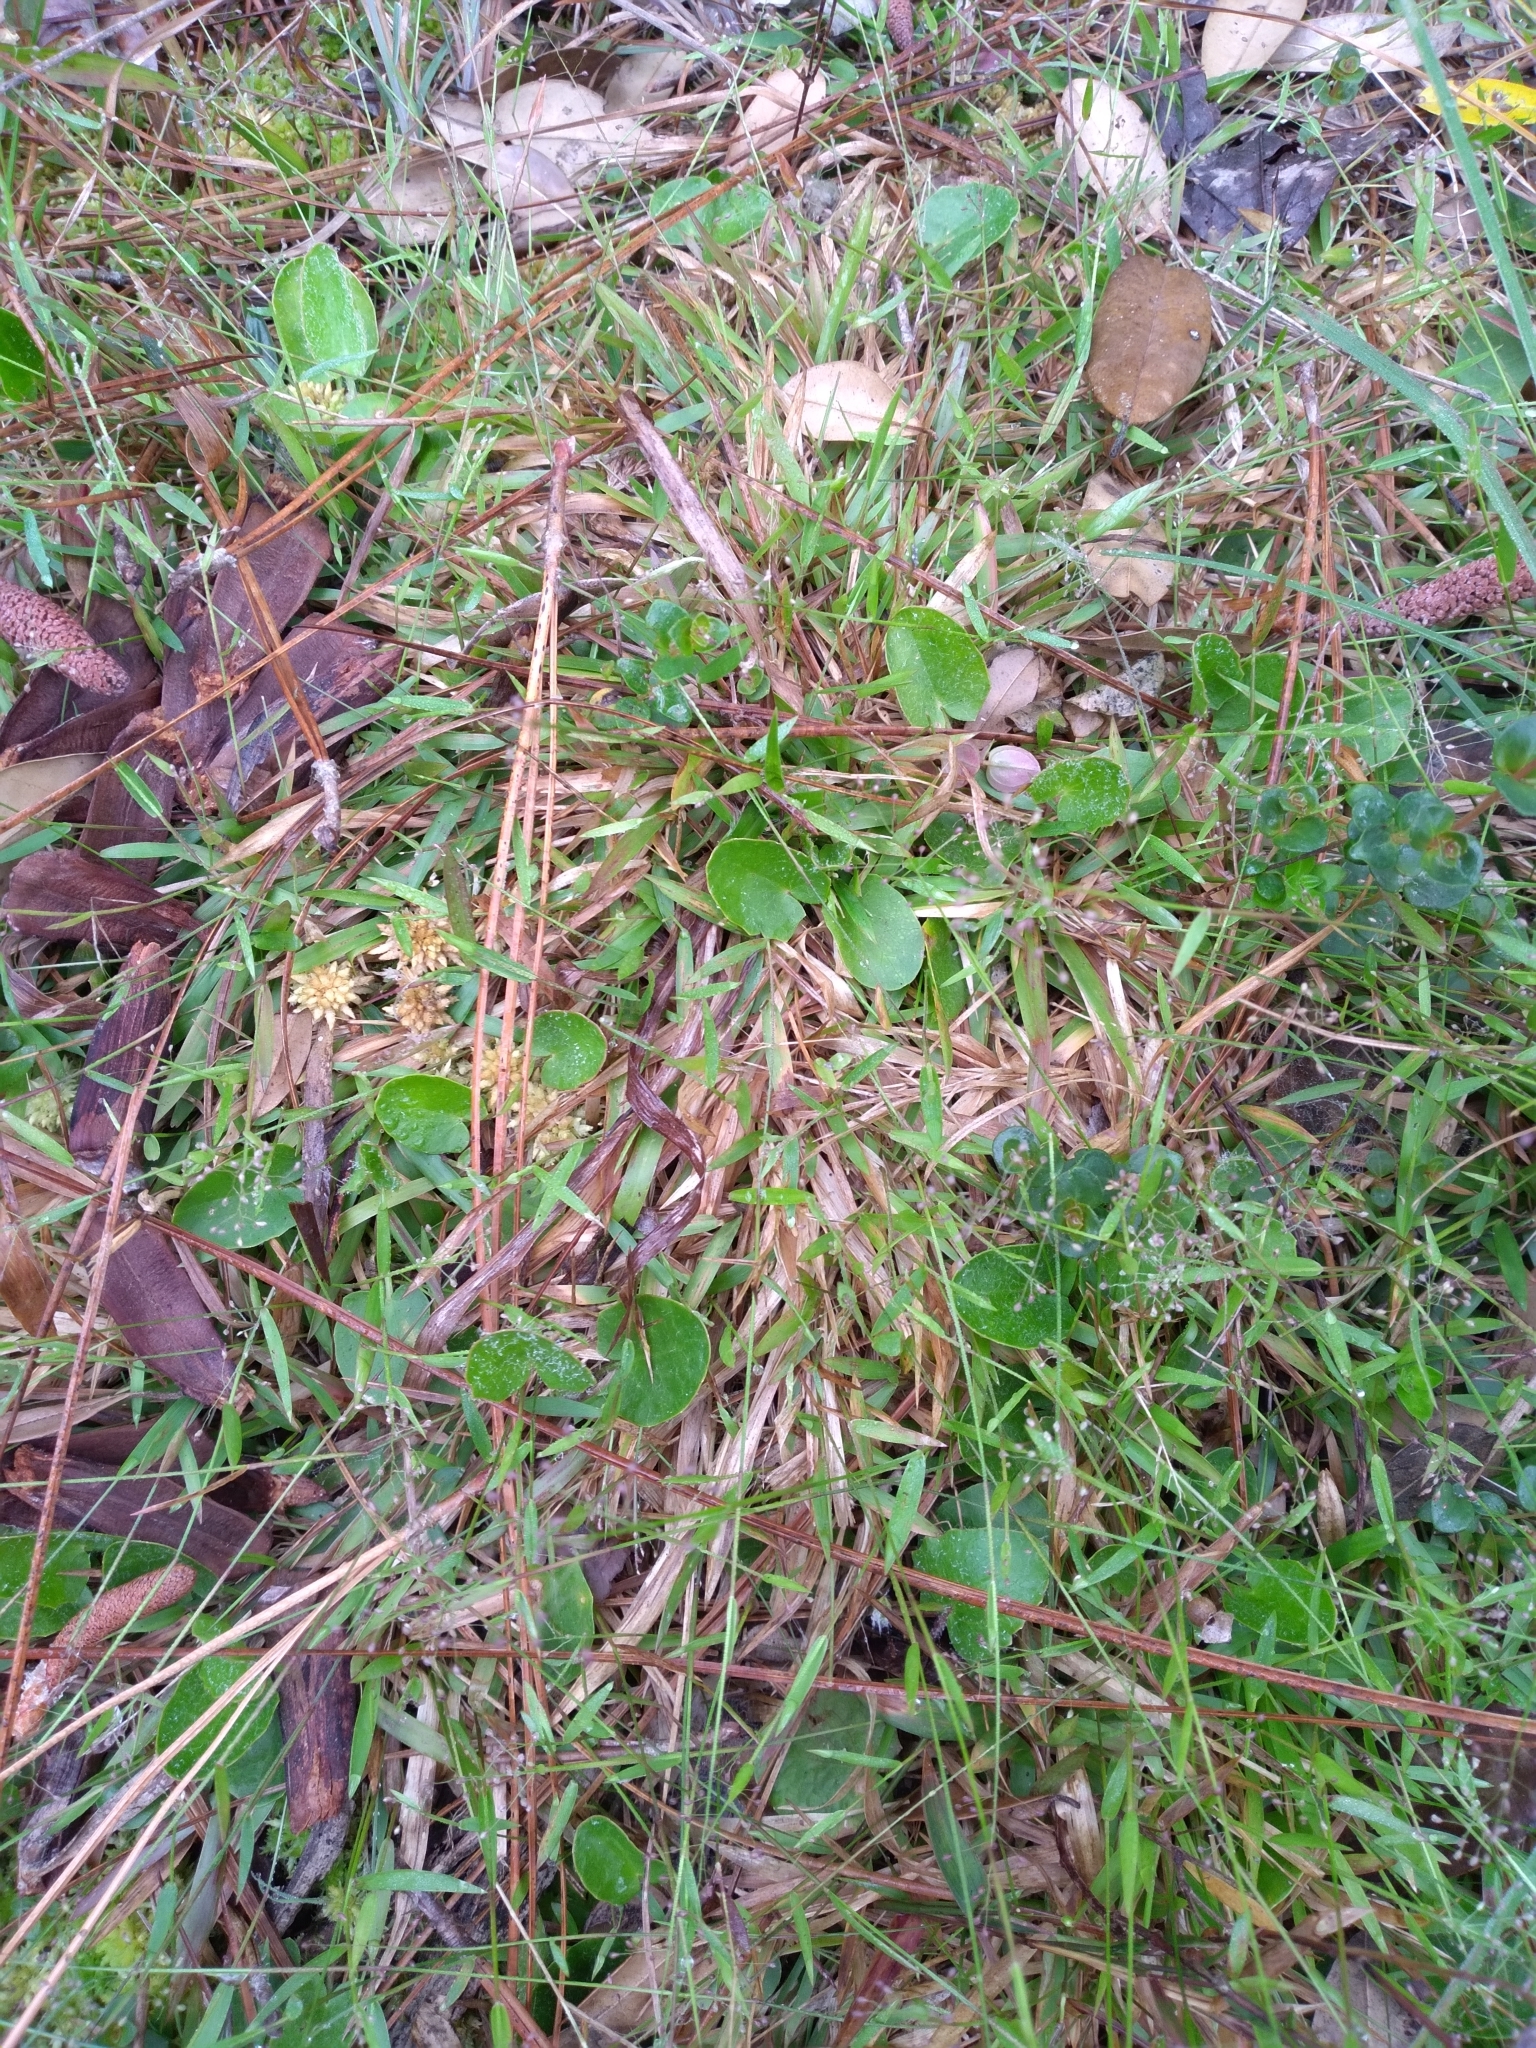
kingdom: Plantae
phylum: Tracheophyta
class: Liliopsida
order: Poales
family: Poaceae
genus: Dichanthelium
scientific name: Dichanthelium ensifolium
